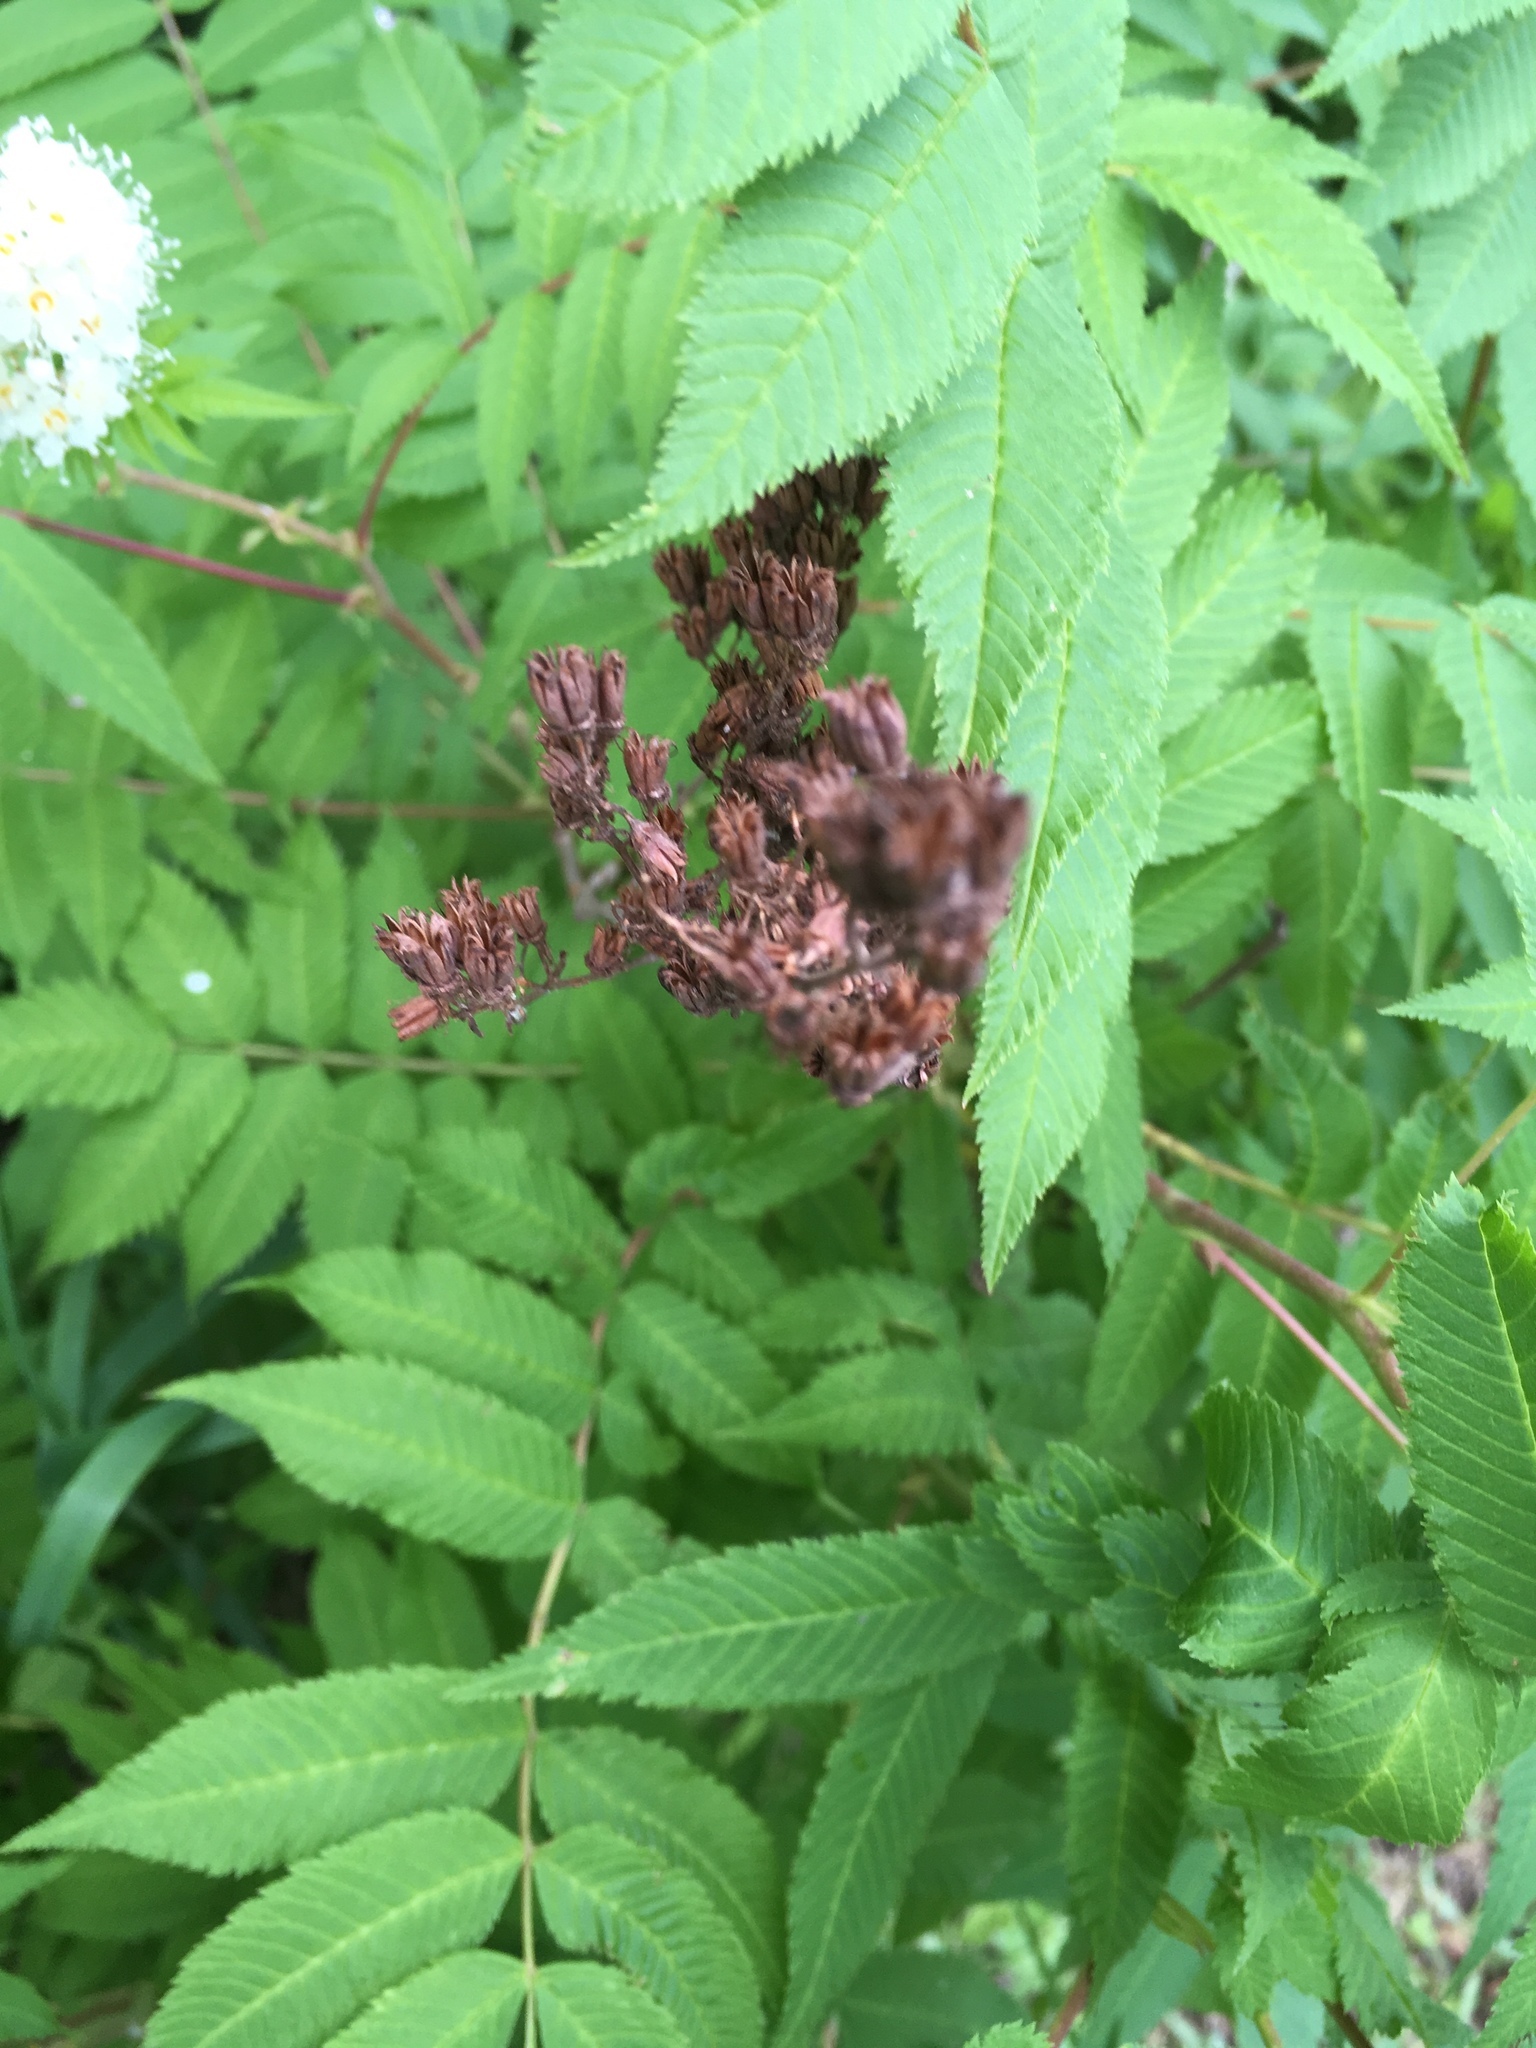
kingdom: Plantae
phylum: Tracheophyta
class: Magnoliopsida
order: Rosales
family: Rosaceae
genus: Sorbaria
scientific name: Sorbaria sorbifolia
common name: False spiraea
